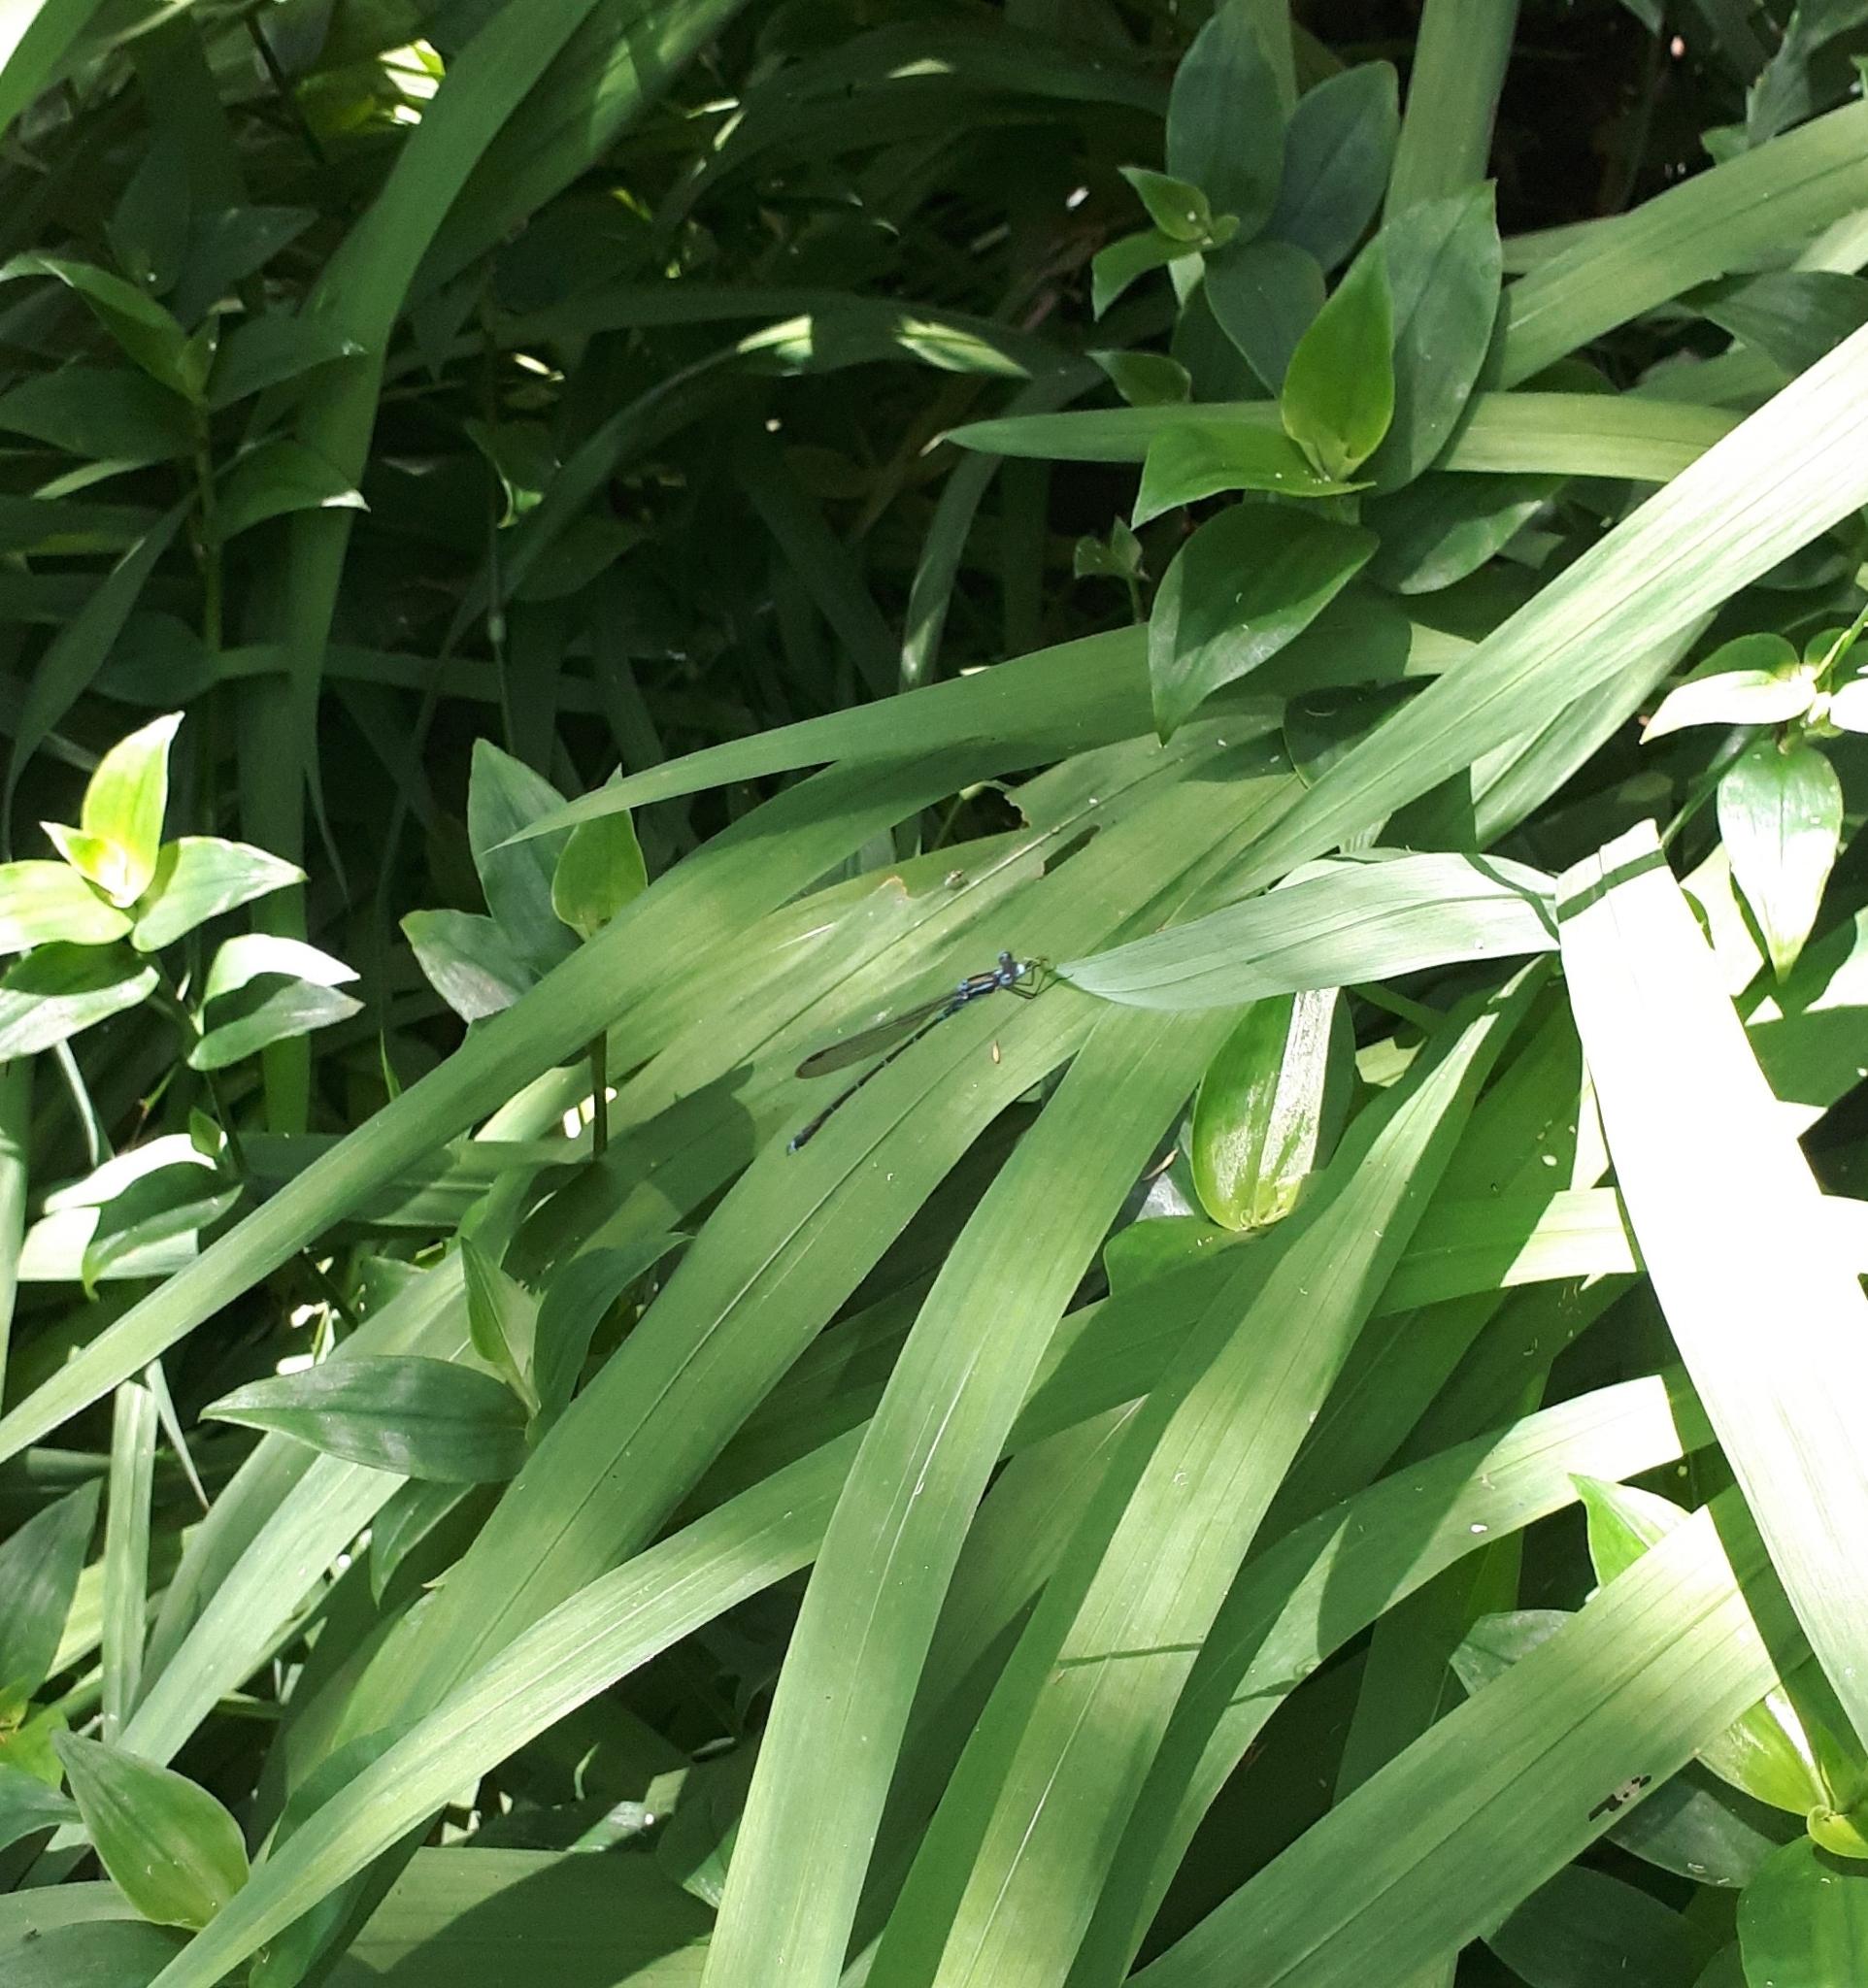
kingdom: Animalia
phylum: Arthropoda
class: Insecta
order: Odonata
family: Lestidae
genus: Austrolestes
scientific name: Austrolestes colensonis
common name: Blue damselfly
